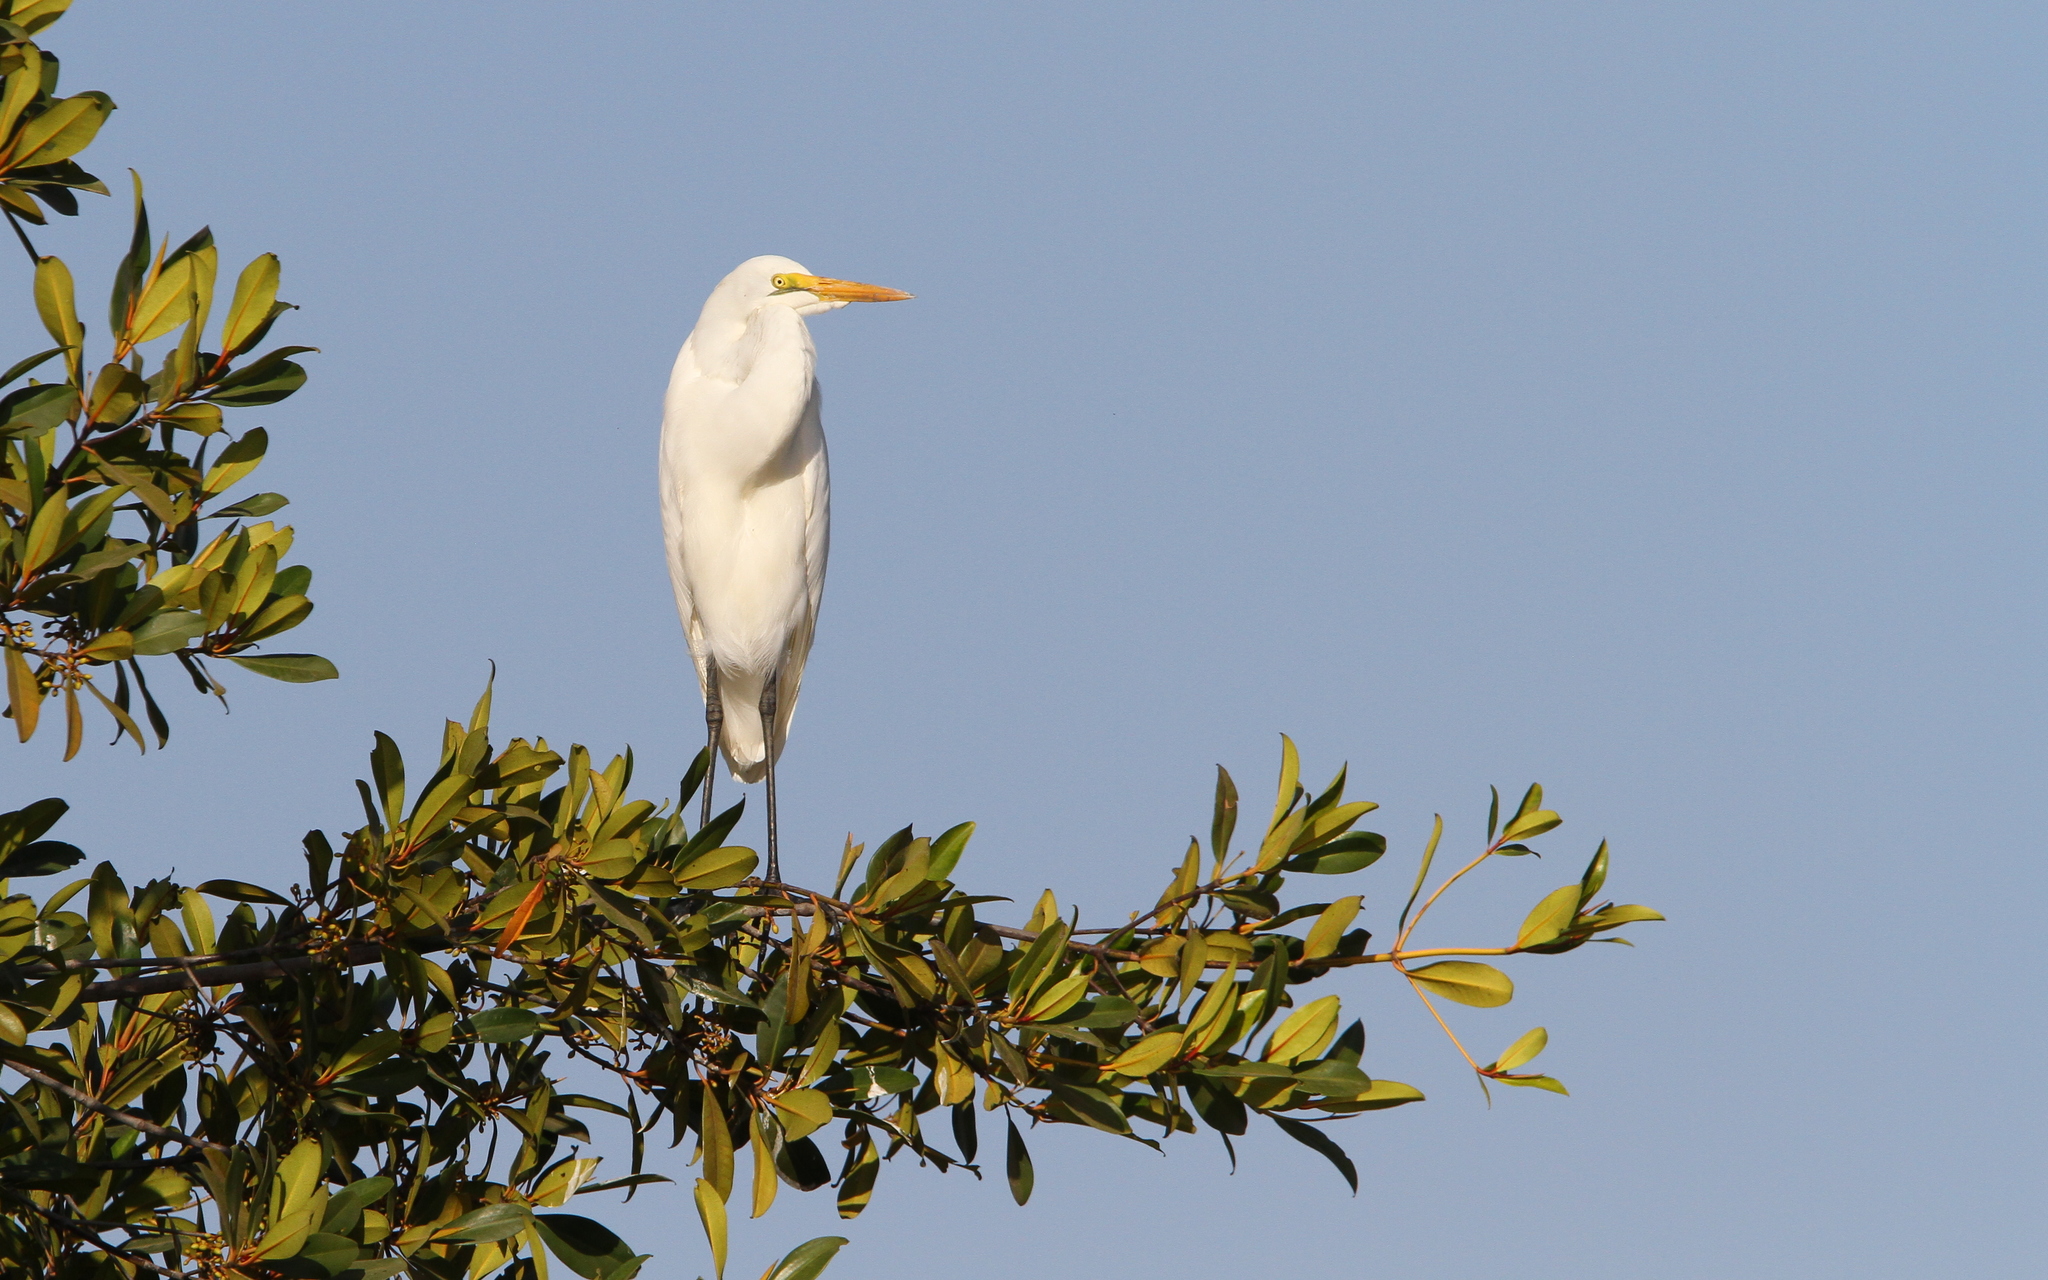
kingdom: Animalia
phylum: Chordata
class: Aves
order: Pelecaniformes
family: Ardeidae
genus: Ardea
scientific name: Ardea alba
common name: Great egret
